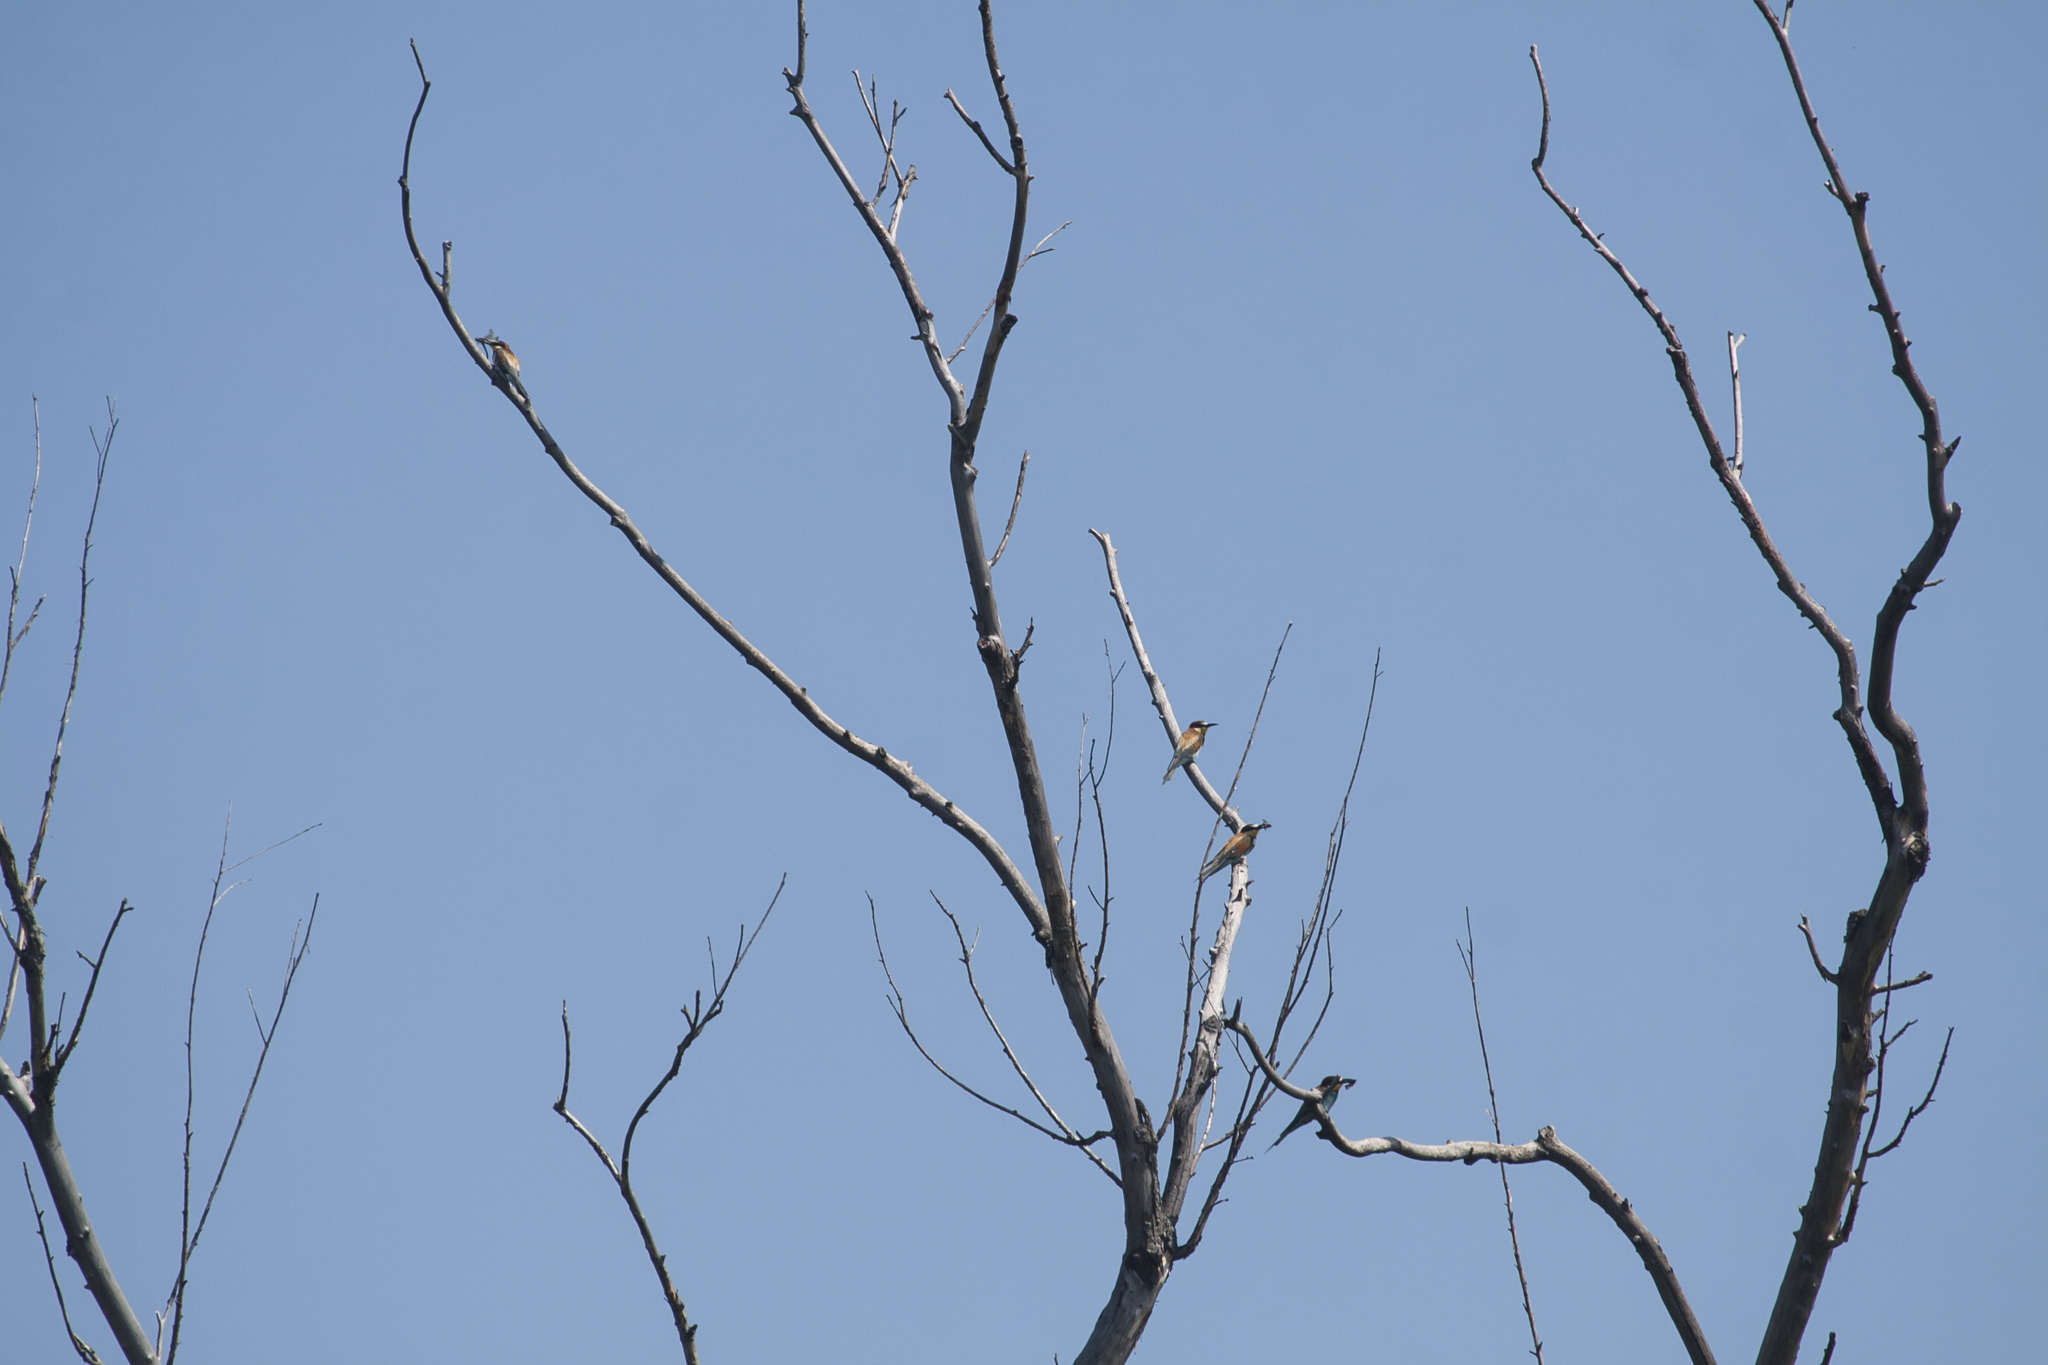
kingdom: Animalia
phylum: Chordata
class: Aves
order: Coraciiformes
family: Meropidae
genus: Merops
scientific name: Merops apiaster
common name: European bee-eater
